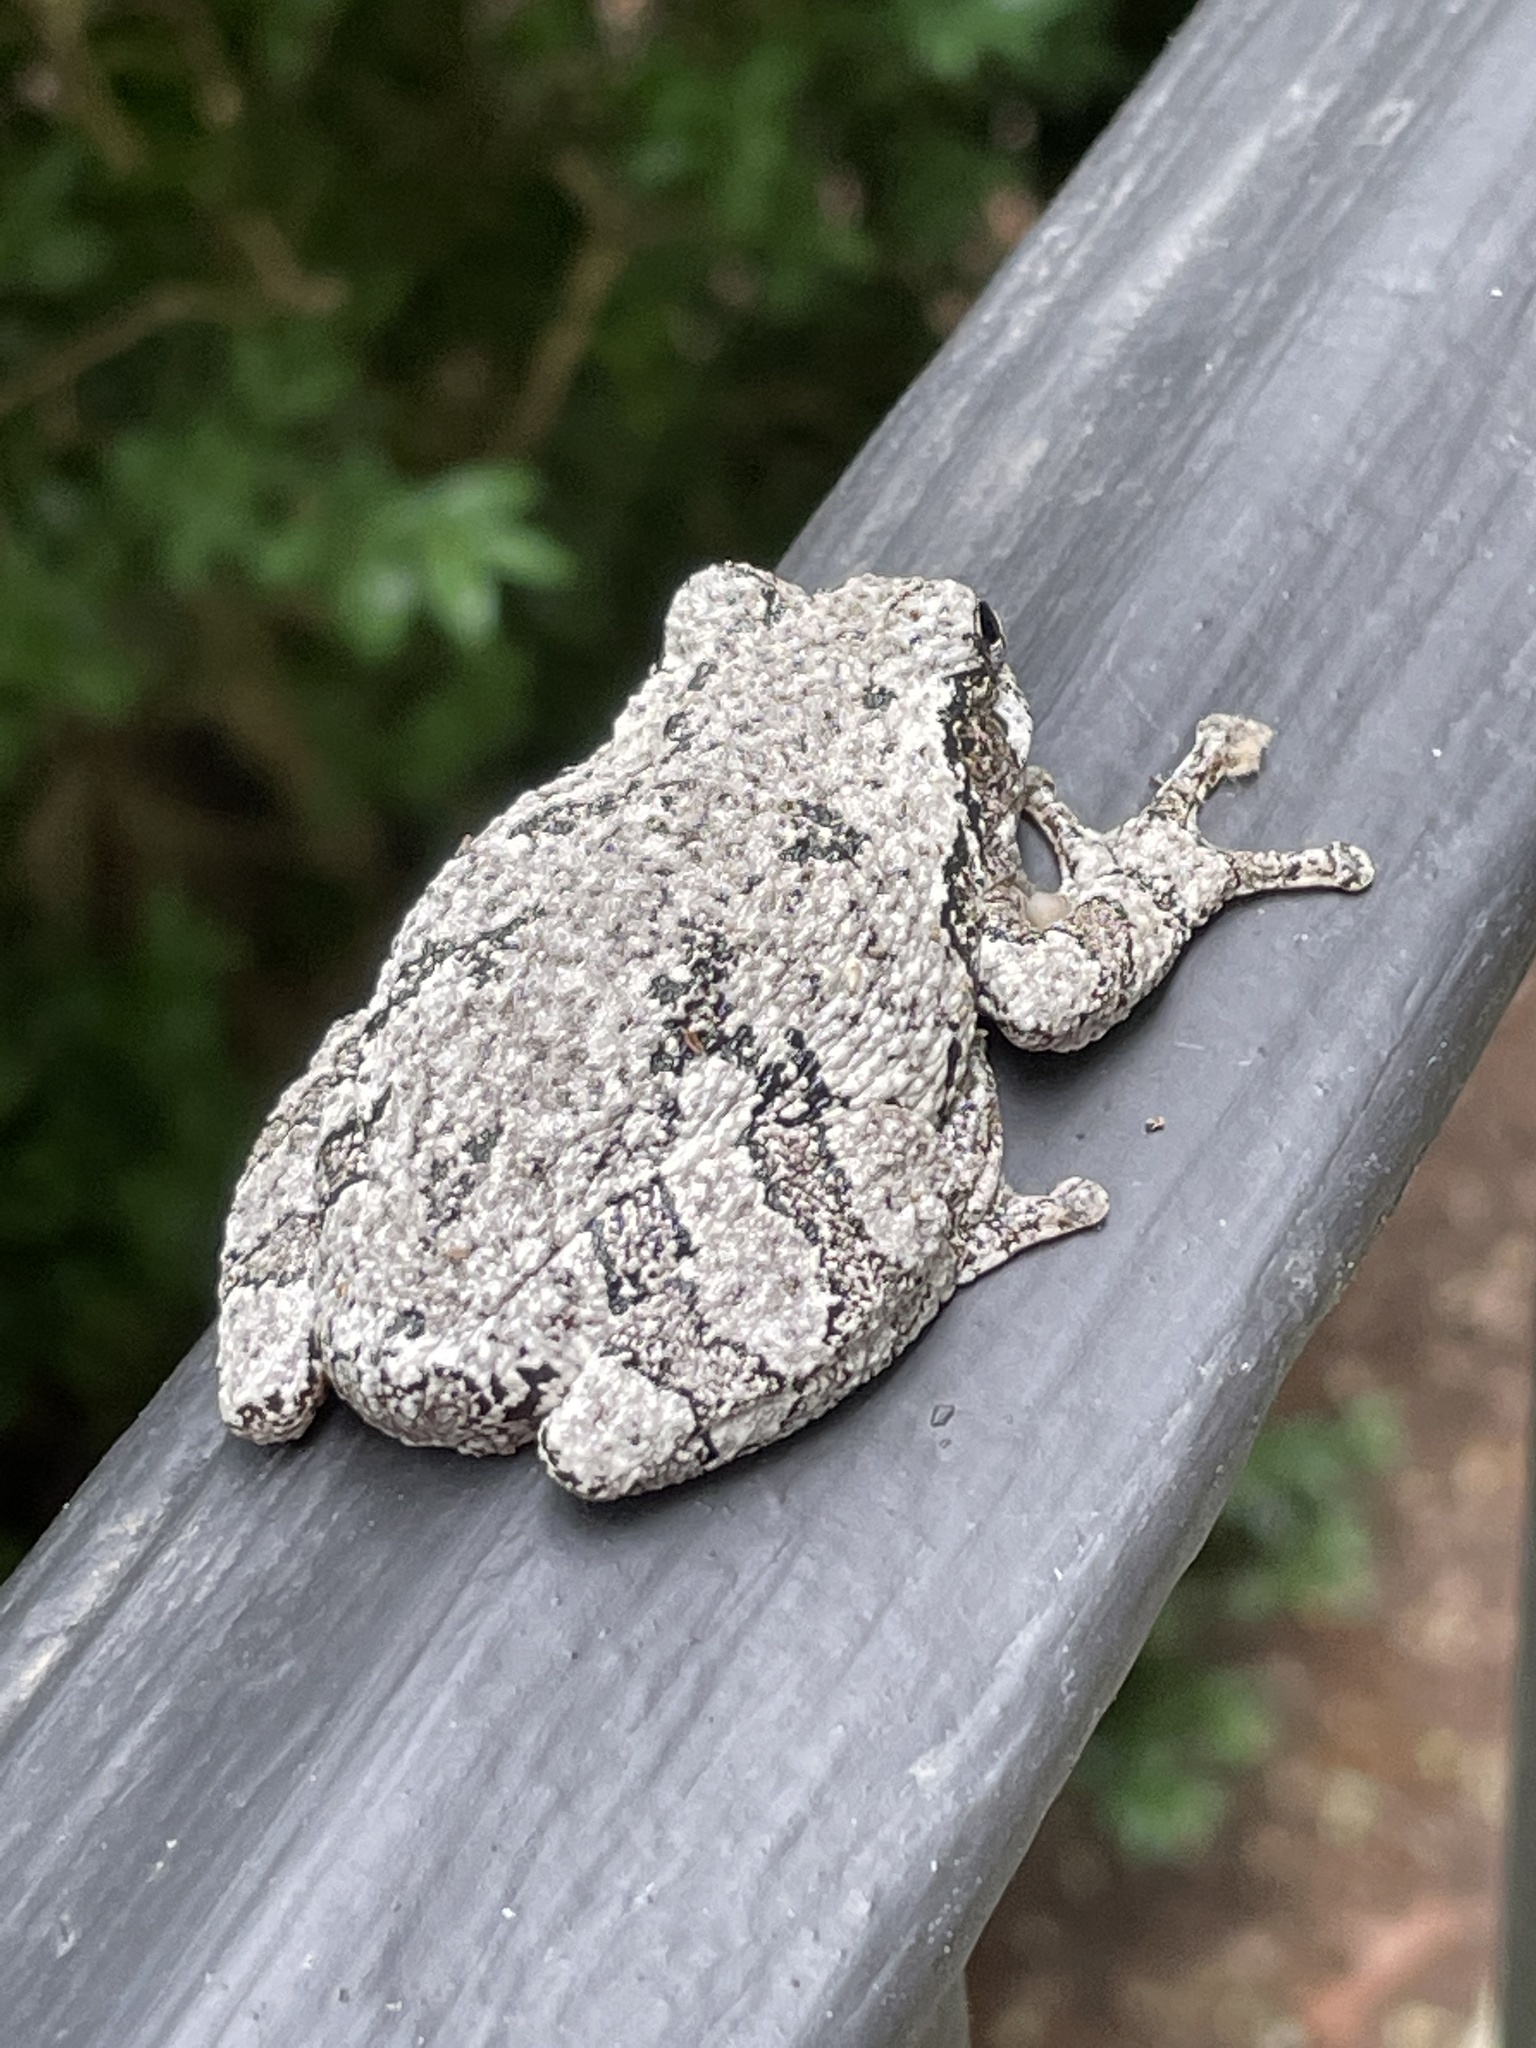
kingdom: Animalia
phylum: Chordata
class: Amphibia
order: Anura
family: Hylidae
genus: Dryophytes
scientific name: Dryophytes versicolor
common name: Gray treefrog
